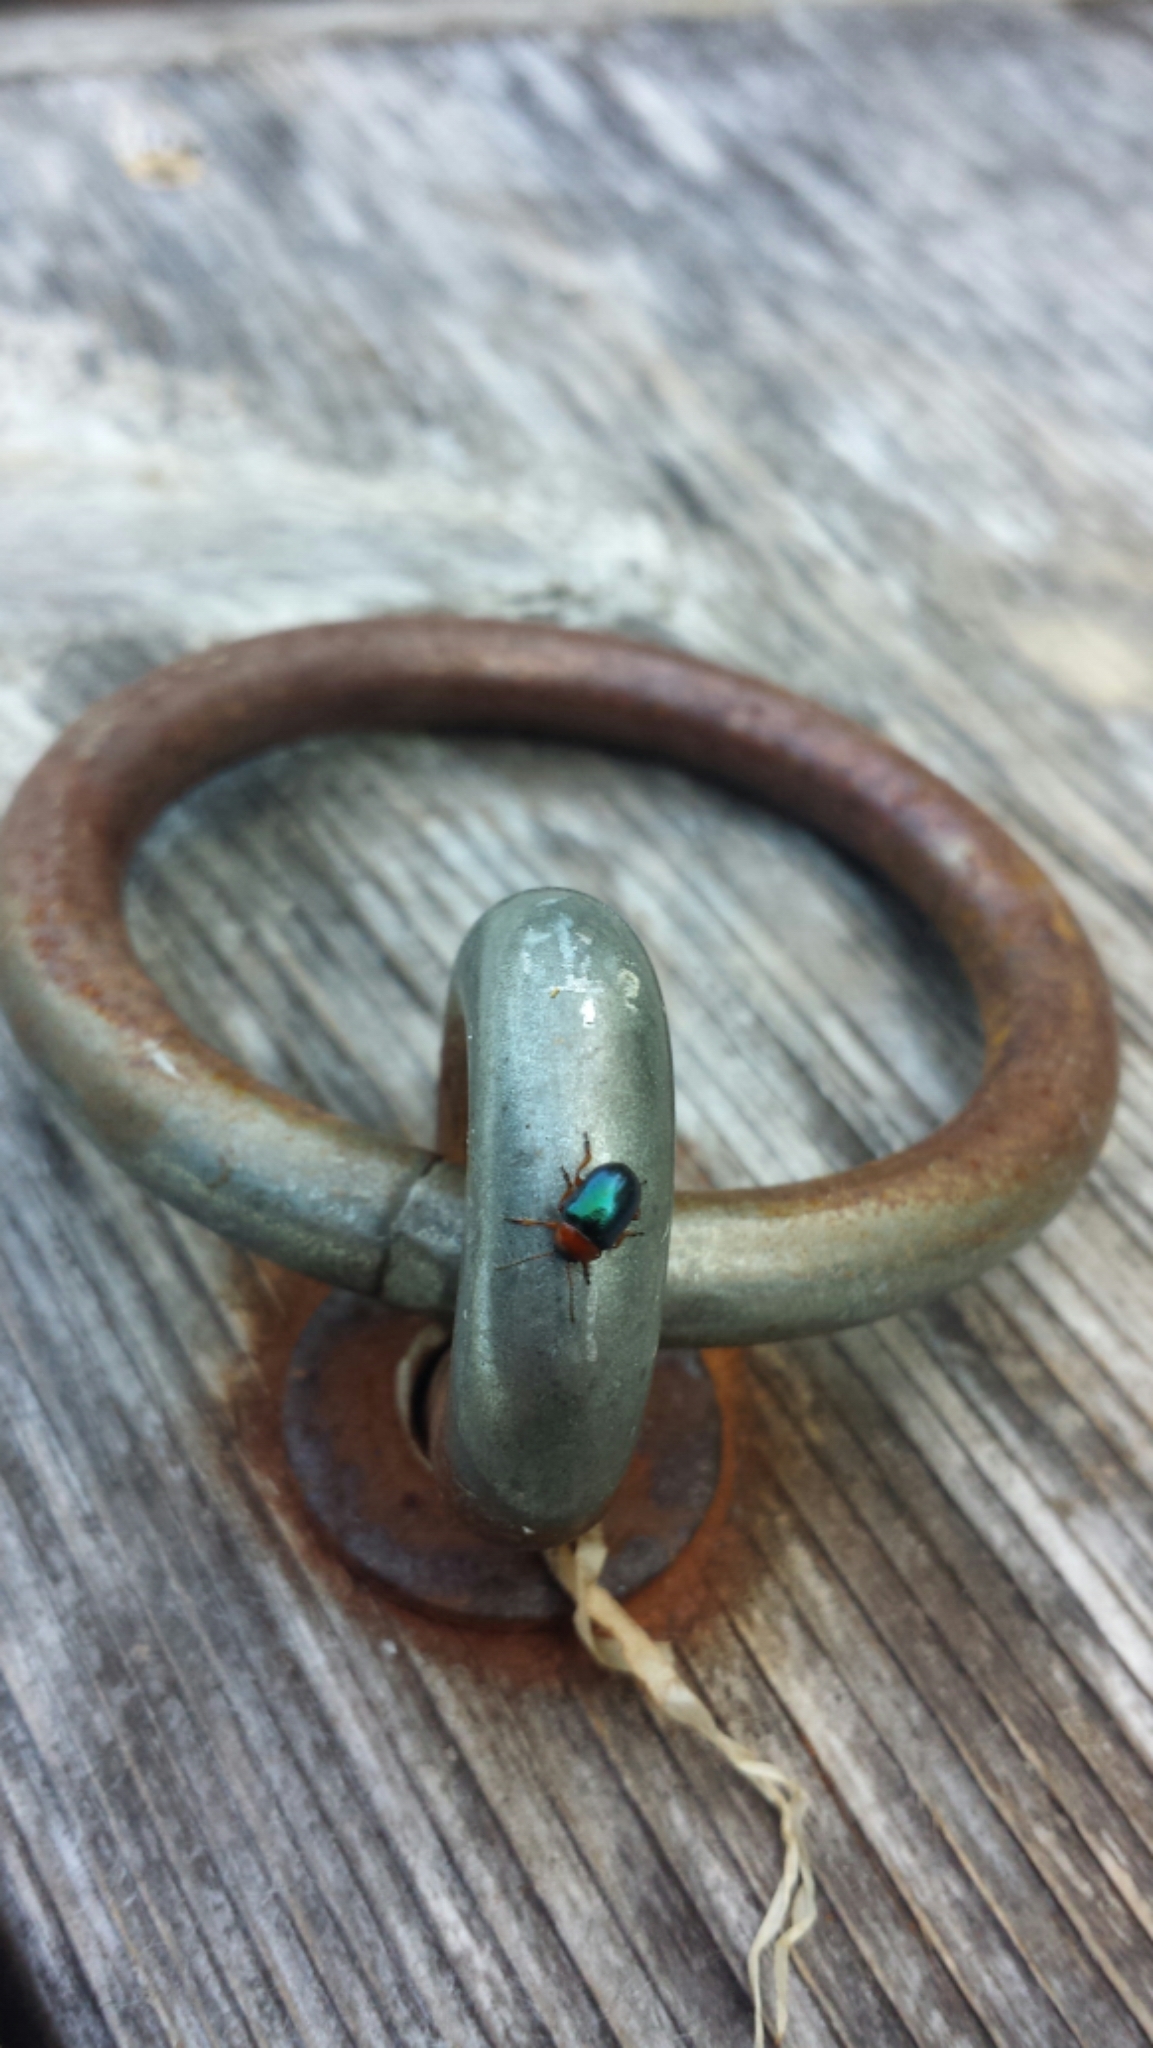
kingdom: Animalia
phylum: Arthropoda
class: Insecta
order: Coleoptera
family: Chrysomelidae
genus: Gastrophysa
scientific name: Gastrophysa polygoni
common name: Knotweed leaf beetle
